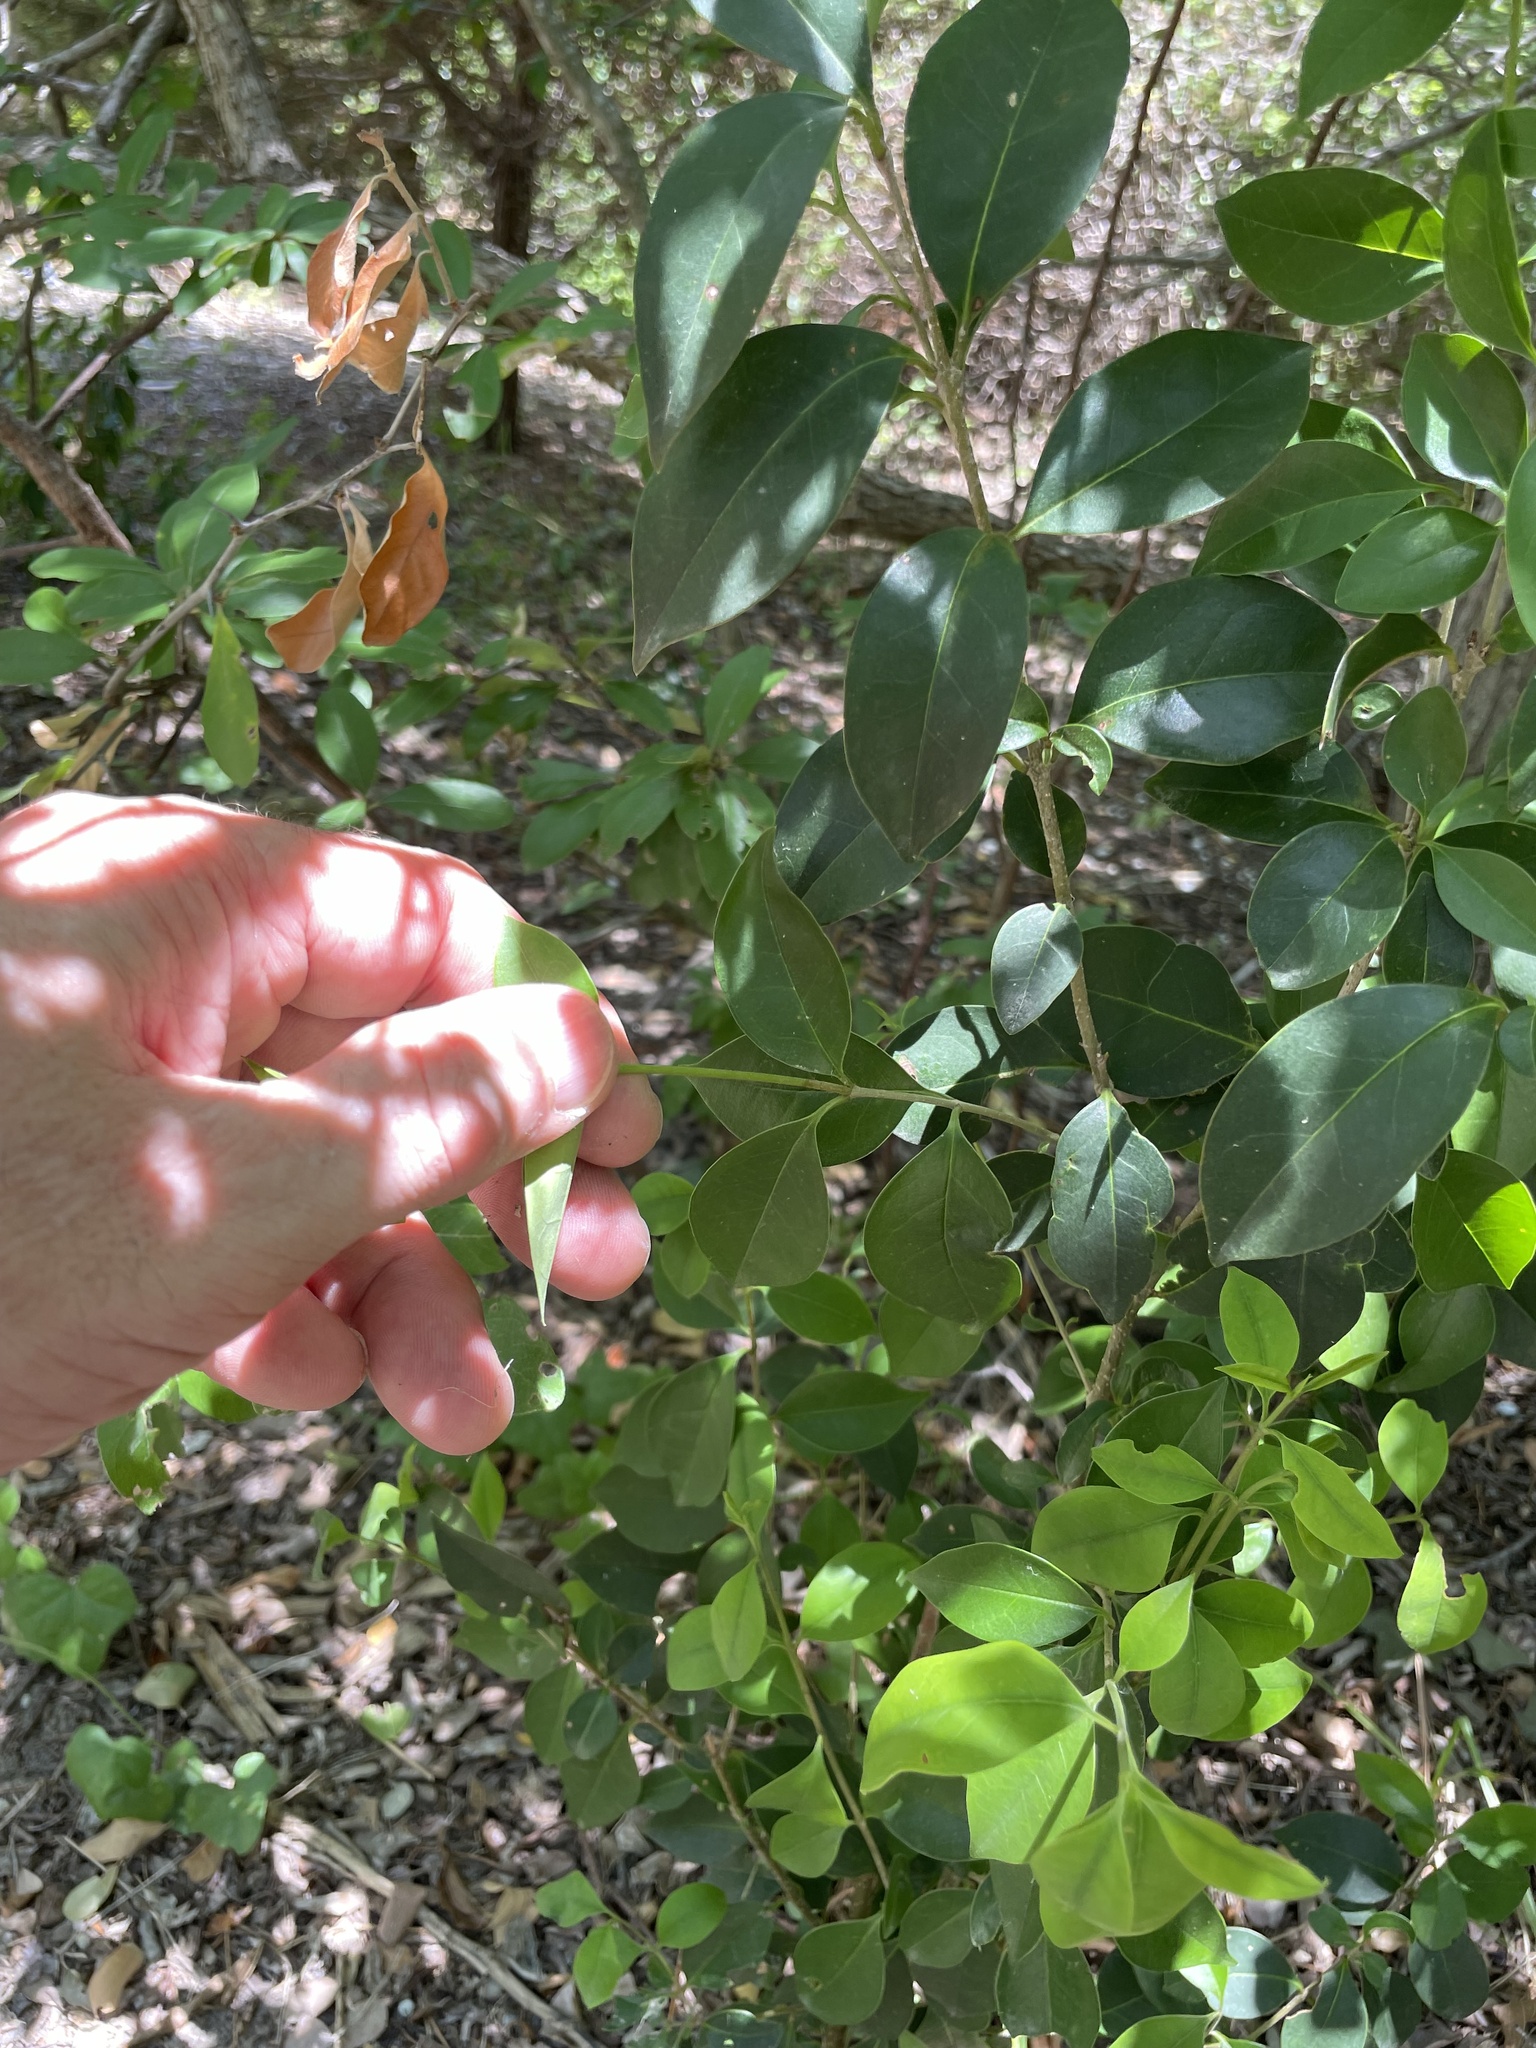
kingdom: Plantae
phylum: Tracheophyta
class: Magnoliopsida
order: Lamiales
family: Oleaceae
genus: Ligustrum
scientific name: Ligustrum lucidum
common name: Glossy privet
